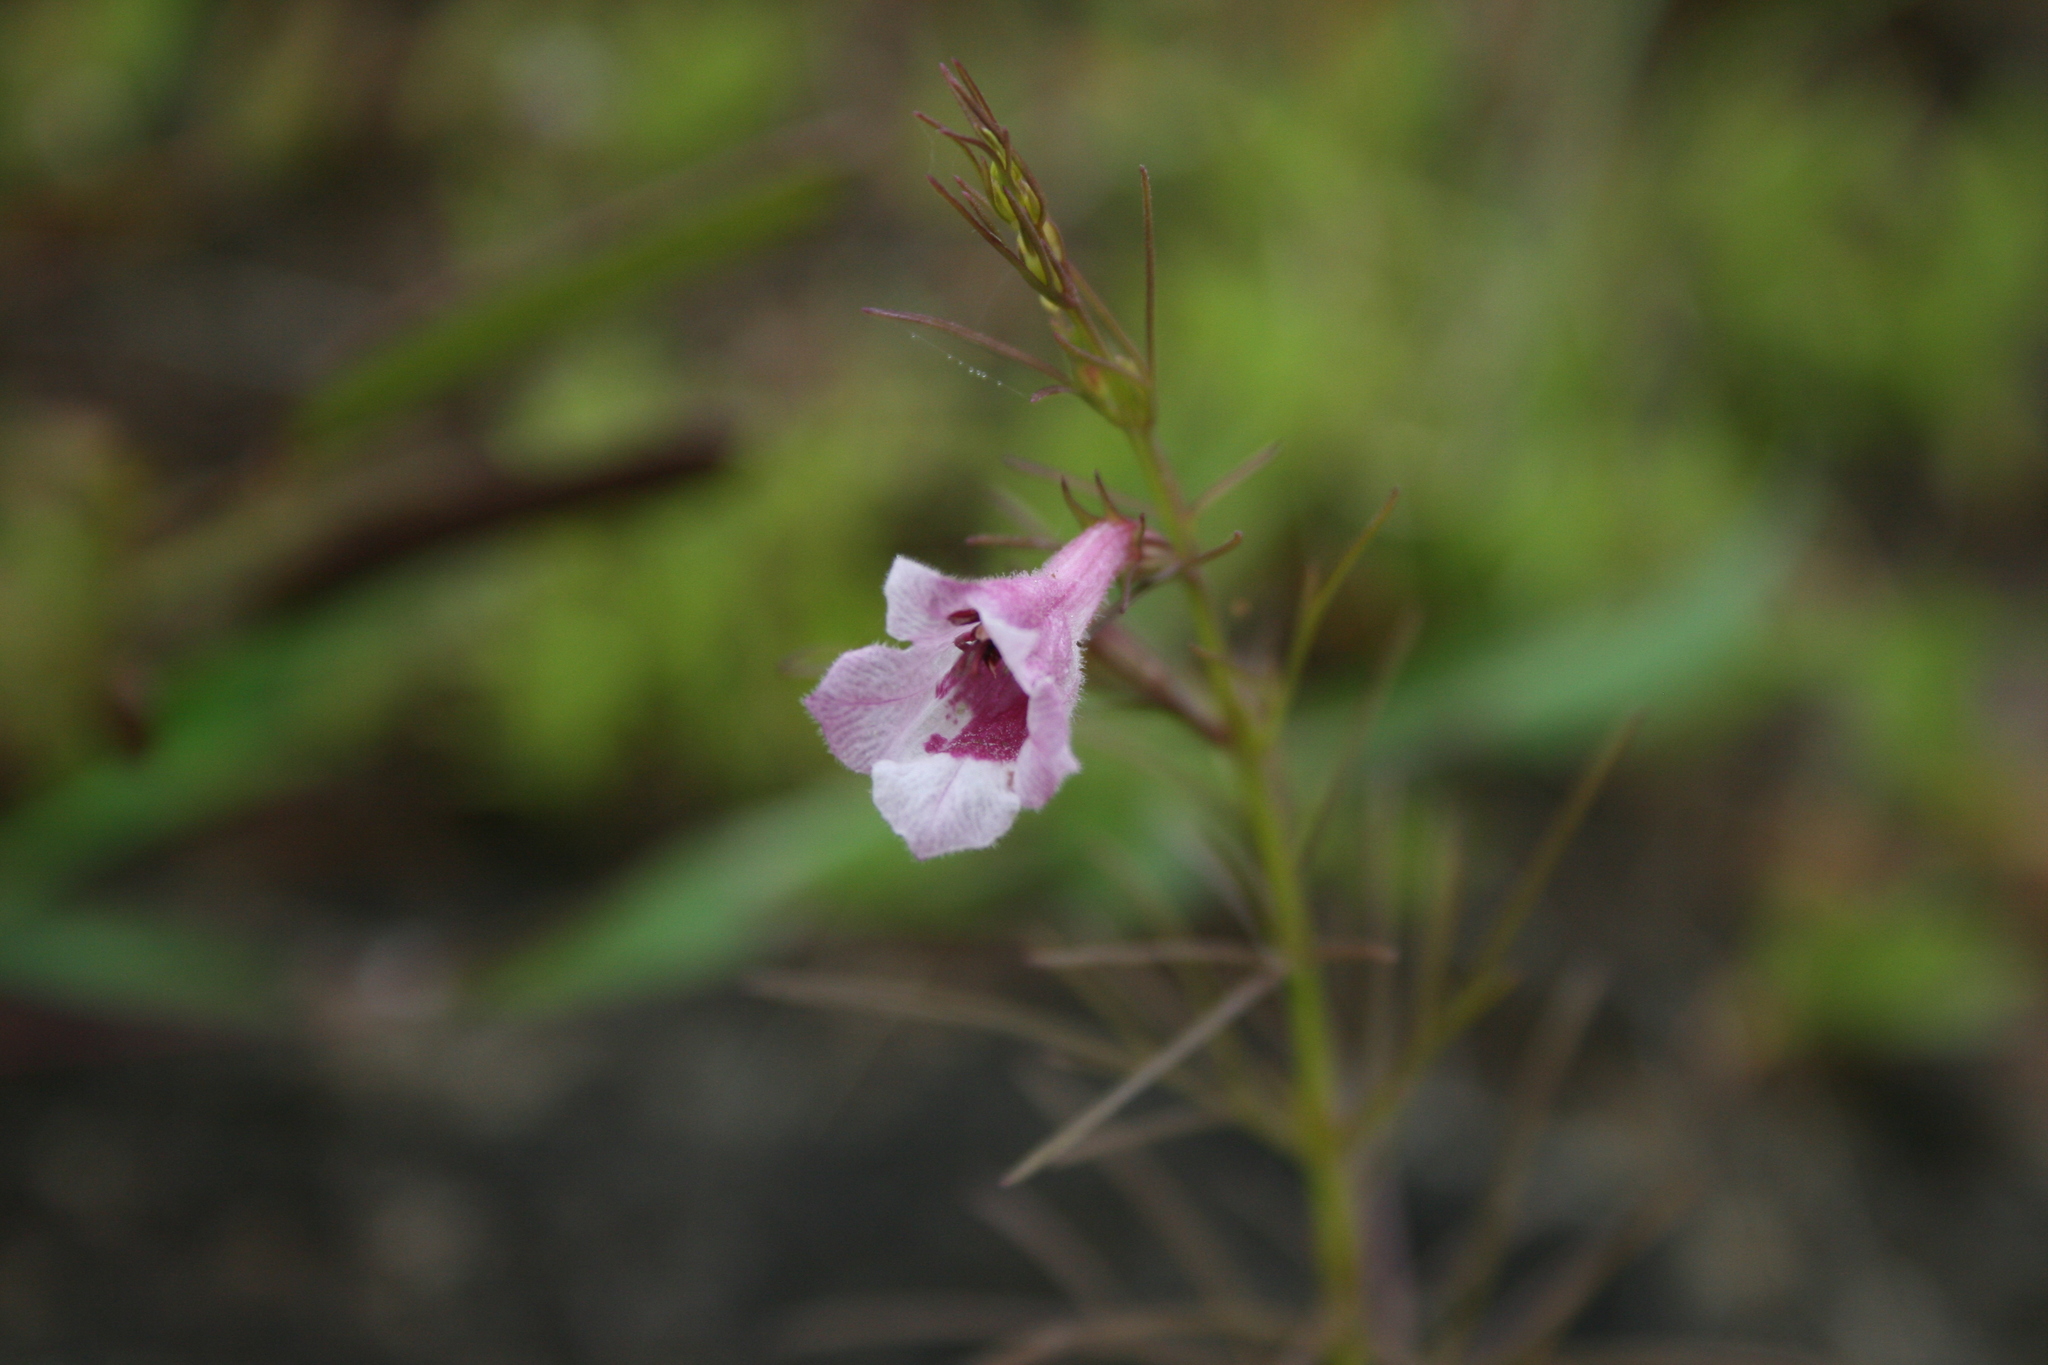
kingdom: Plantae
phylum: Tracheophyta
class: Magnoliopsida
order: Lamiales
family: Orobanchaceae
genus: Parasopubia
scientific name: Parasopubia delphiniifolia
